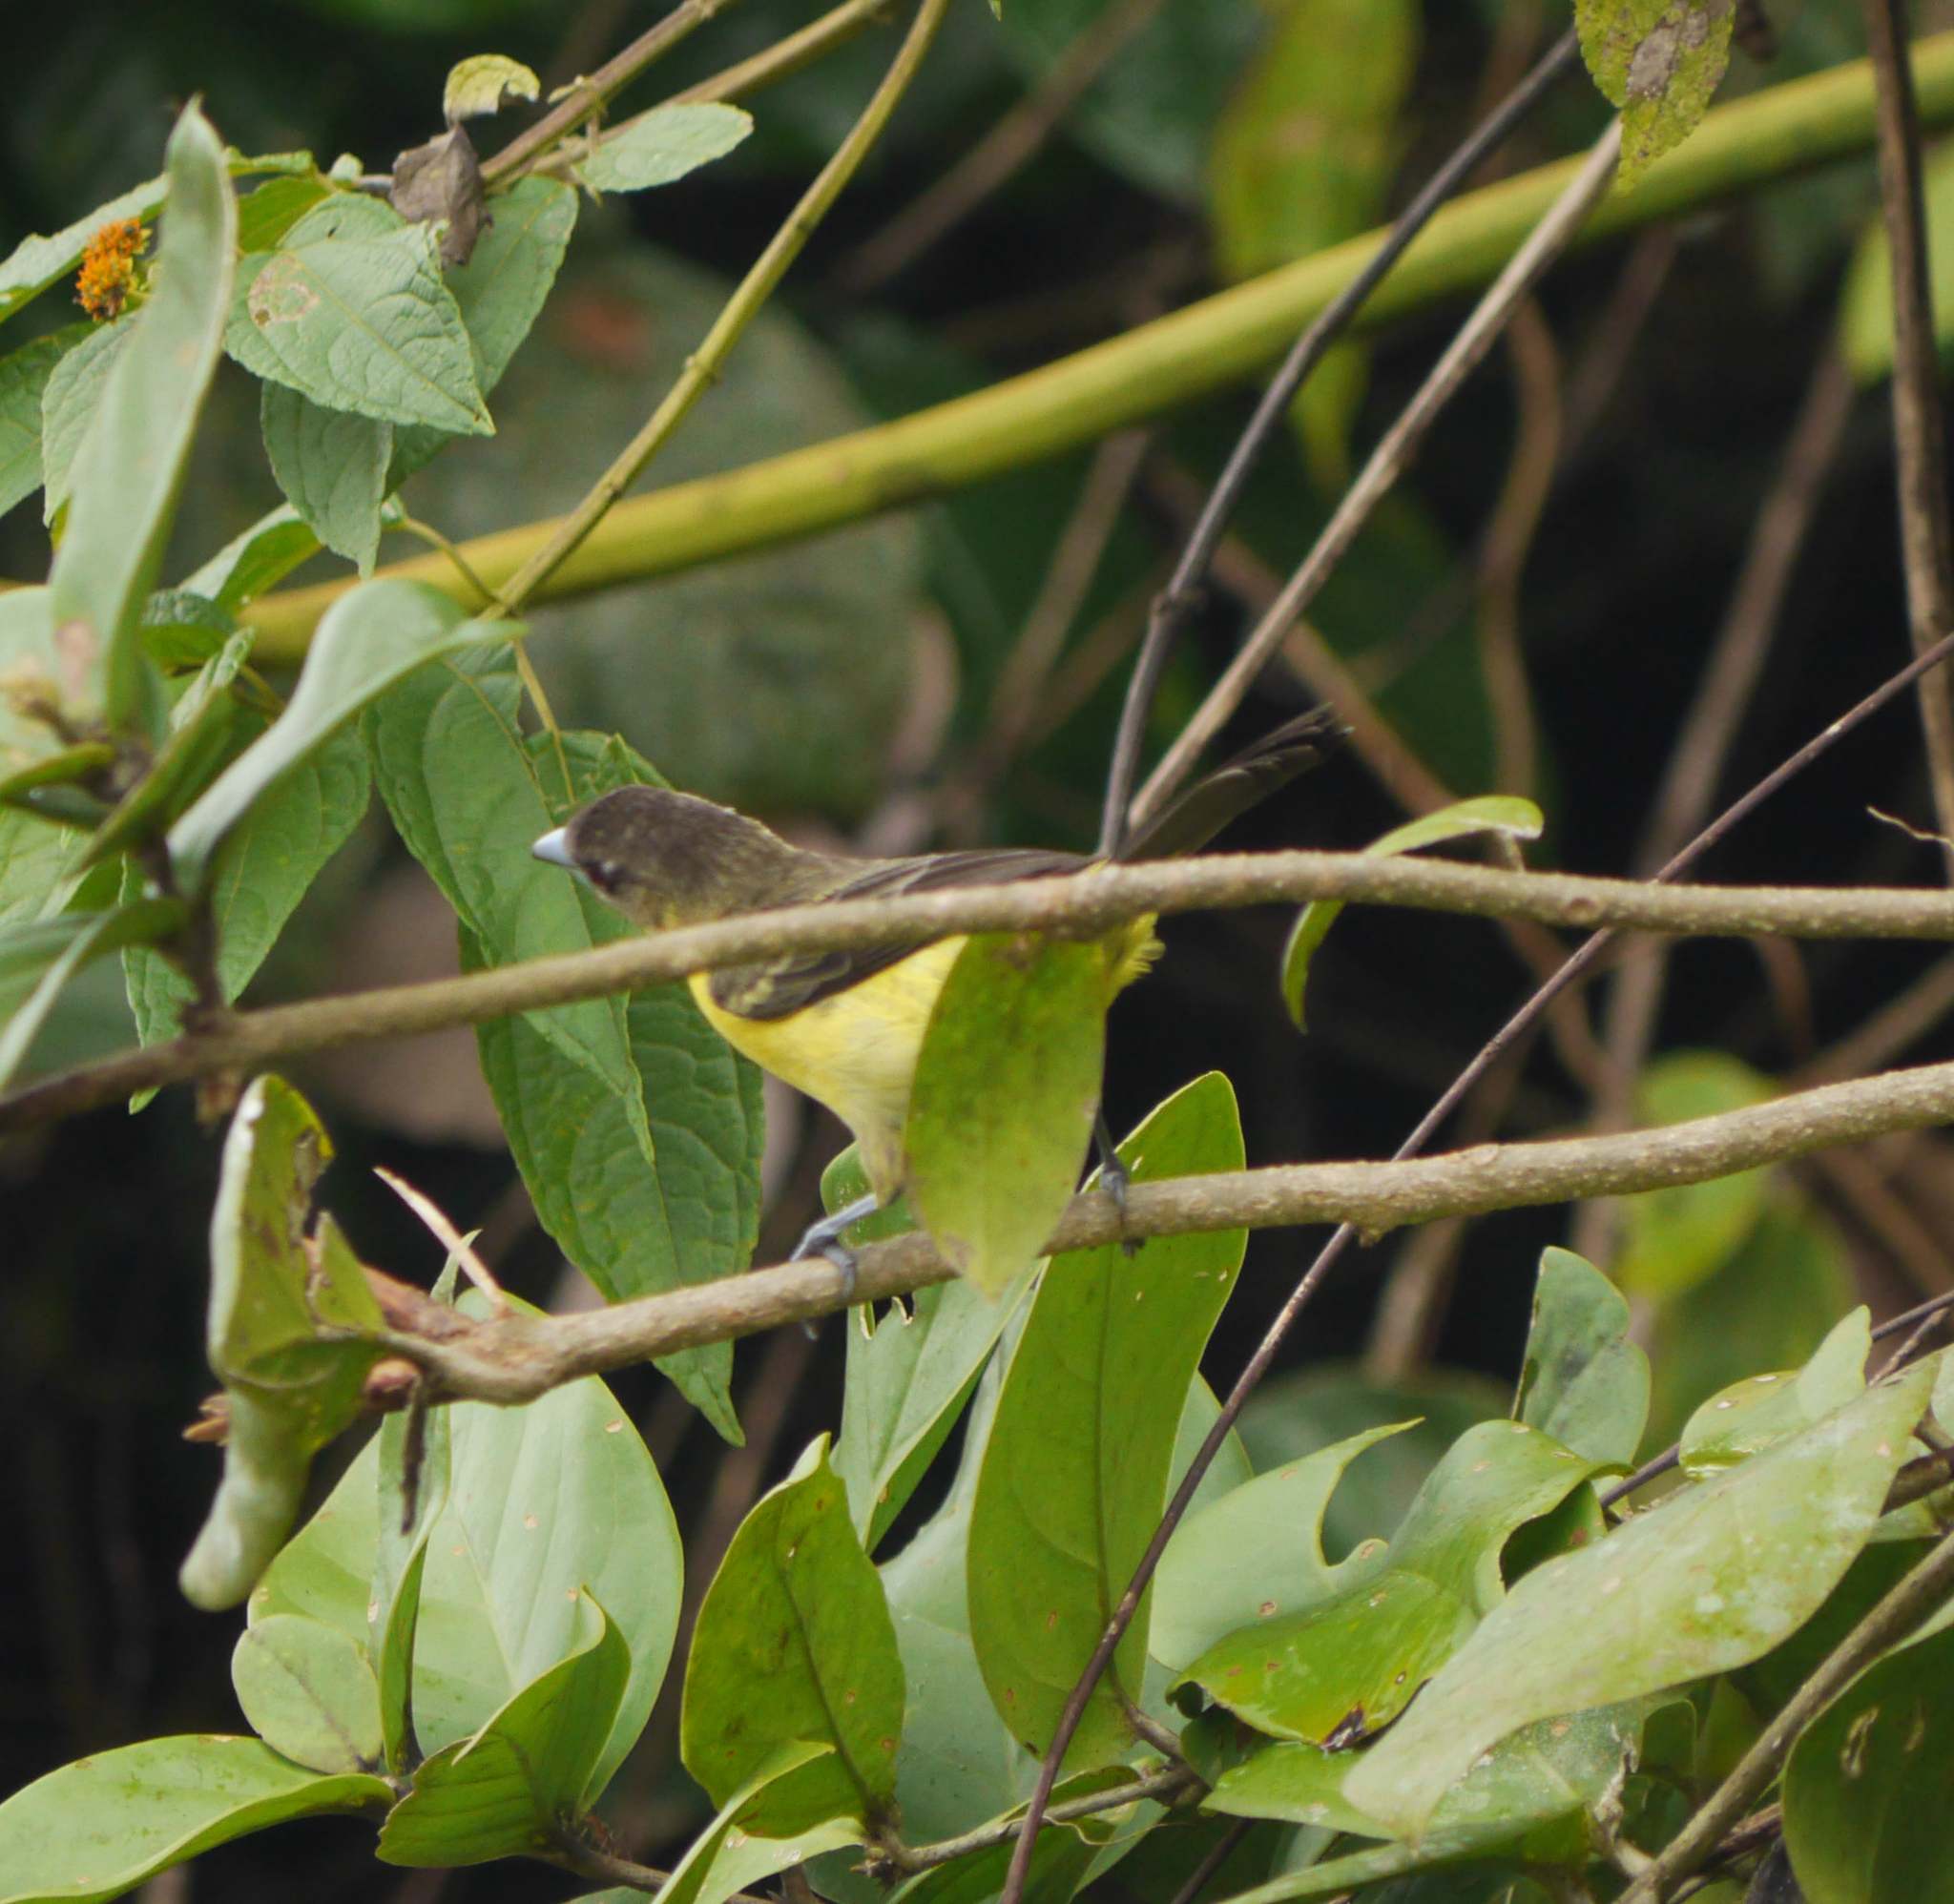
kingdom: Animalia
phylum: Chordata
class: Aves
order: Passeriformes
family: Thraupidae
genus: Ramphocelus
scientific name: Ramphocelus flammigerus
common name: Flame-rumped tanager
